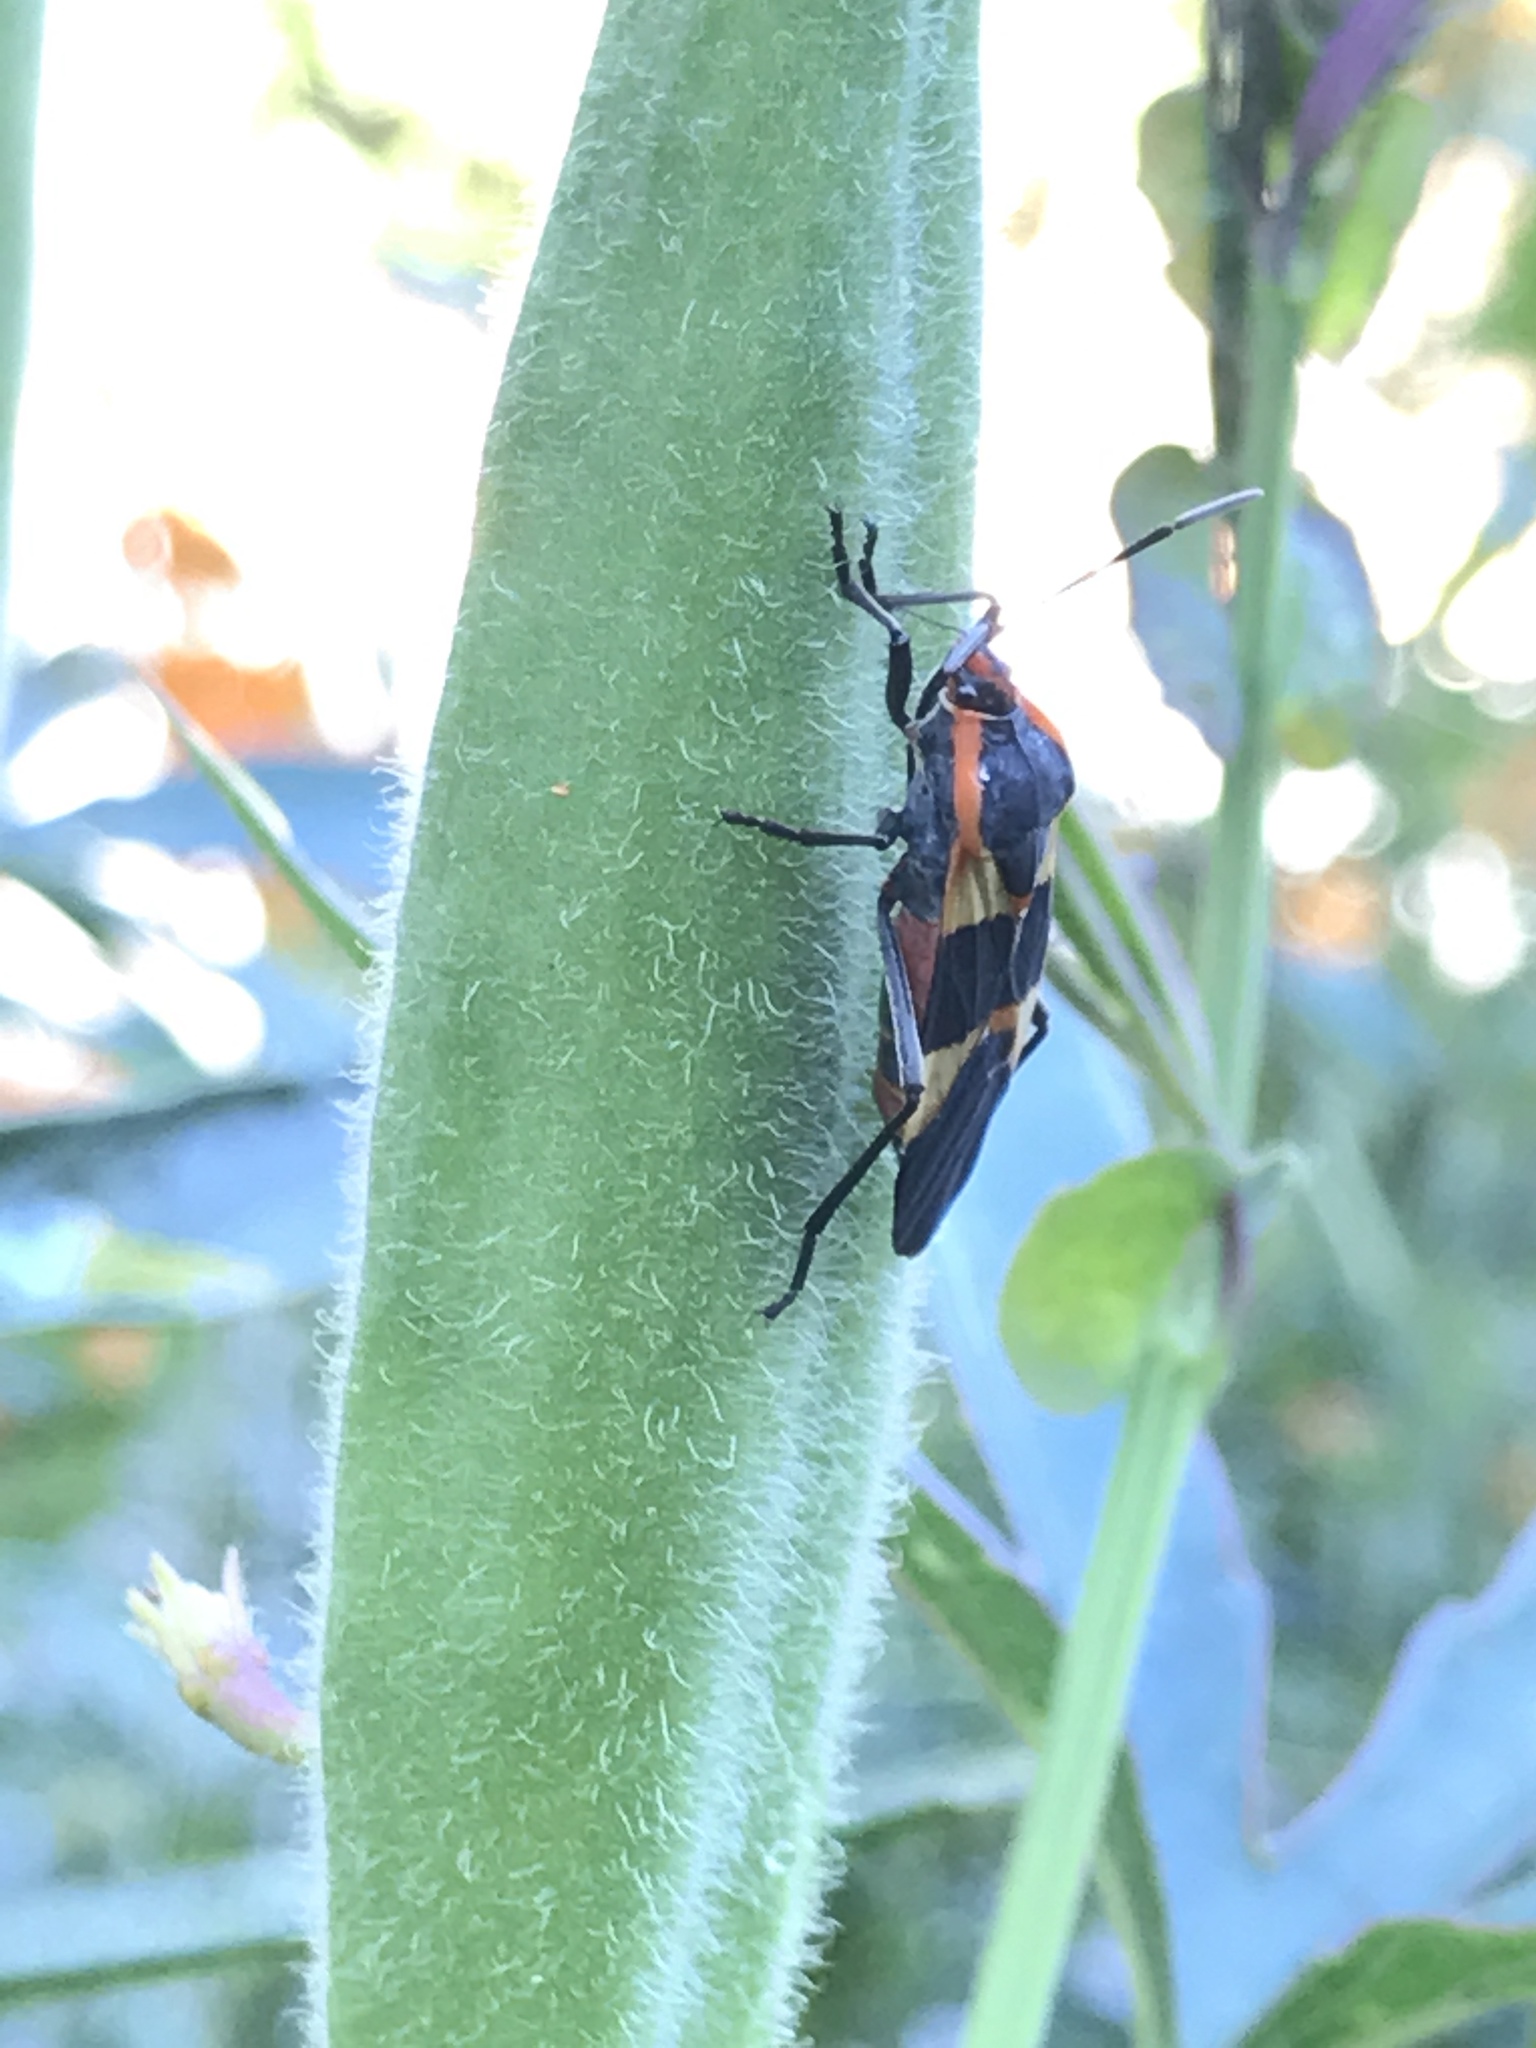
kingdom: Animalia
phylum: Arthropoda
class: Insecta
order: Hemiptera
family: Lygaeidae
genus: Oncopeltus
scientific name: Oncopeltus fasciatus
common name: Large milkweed bug
